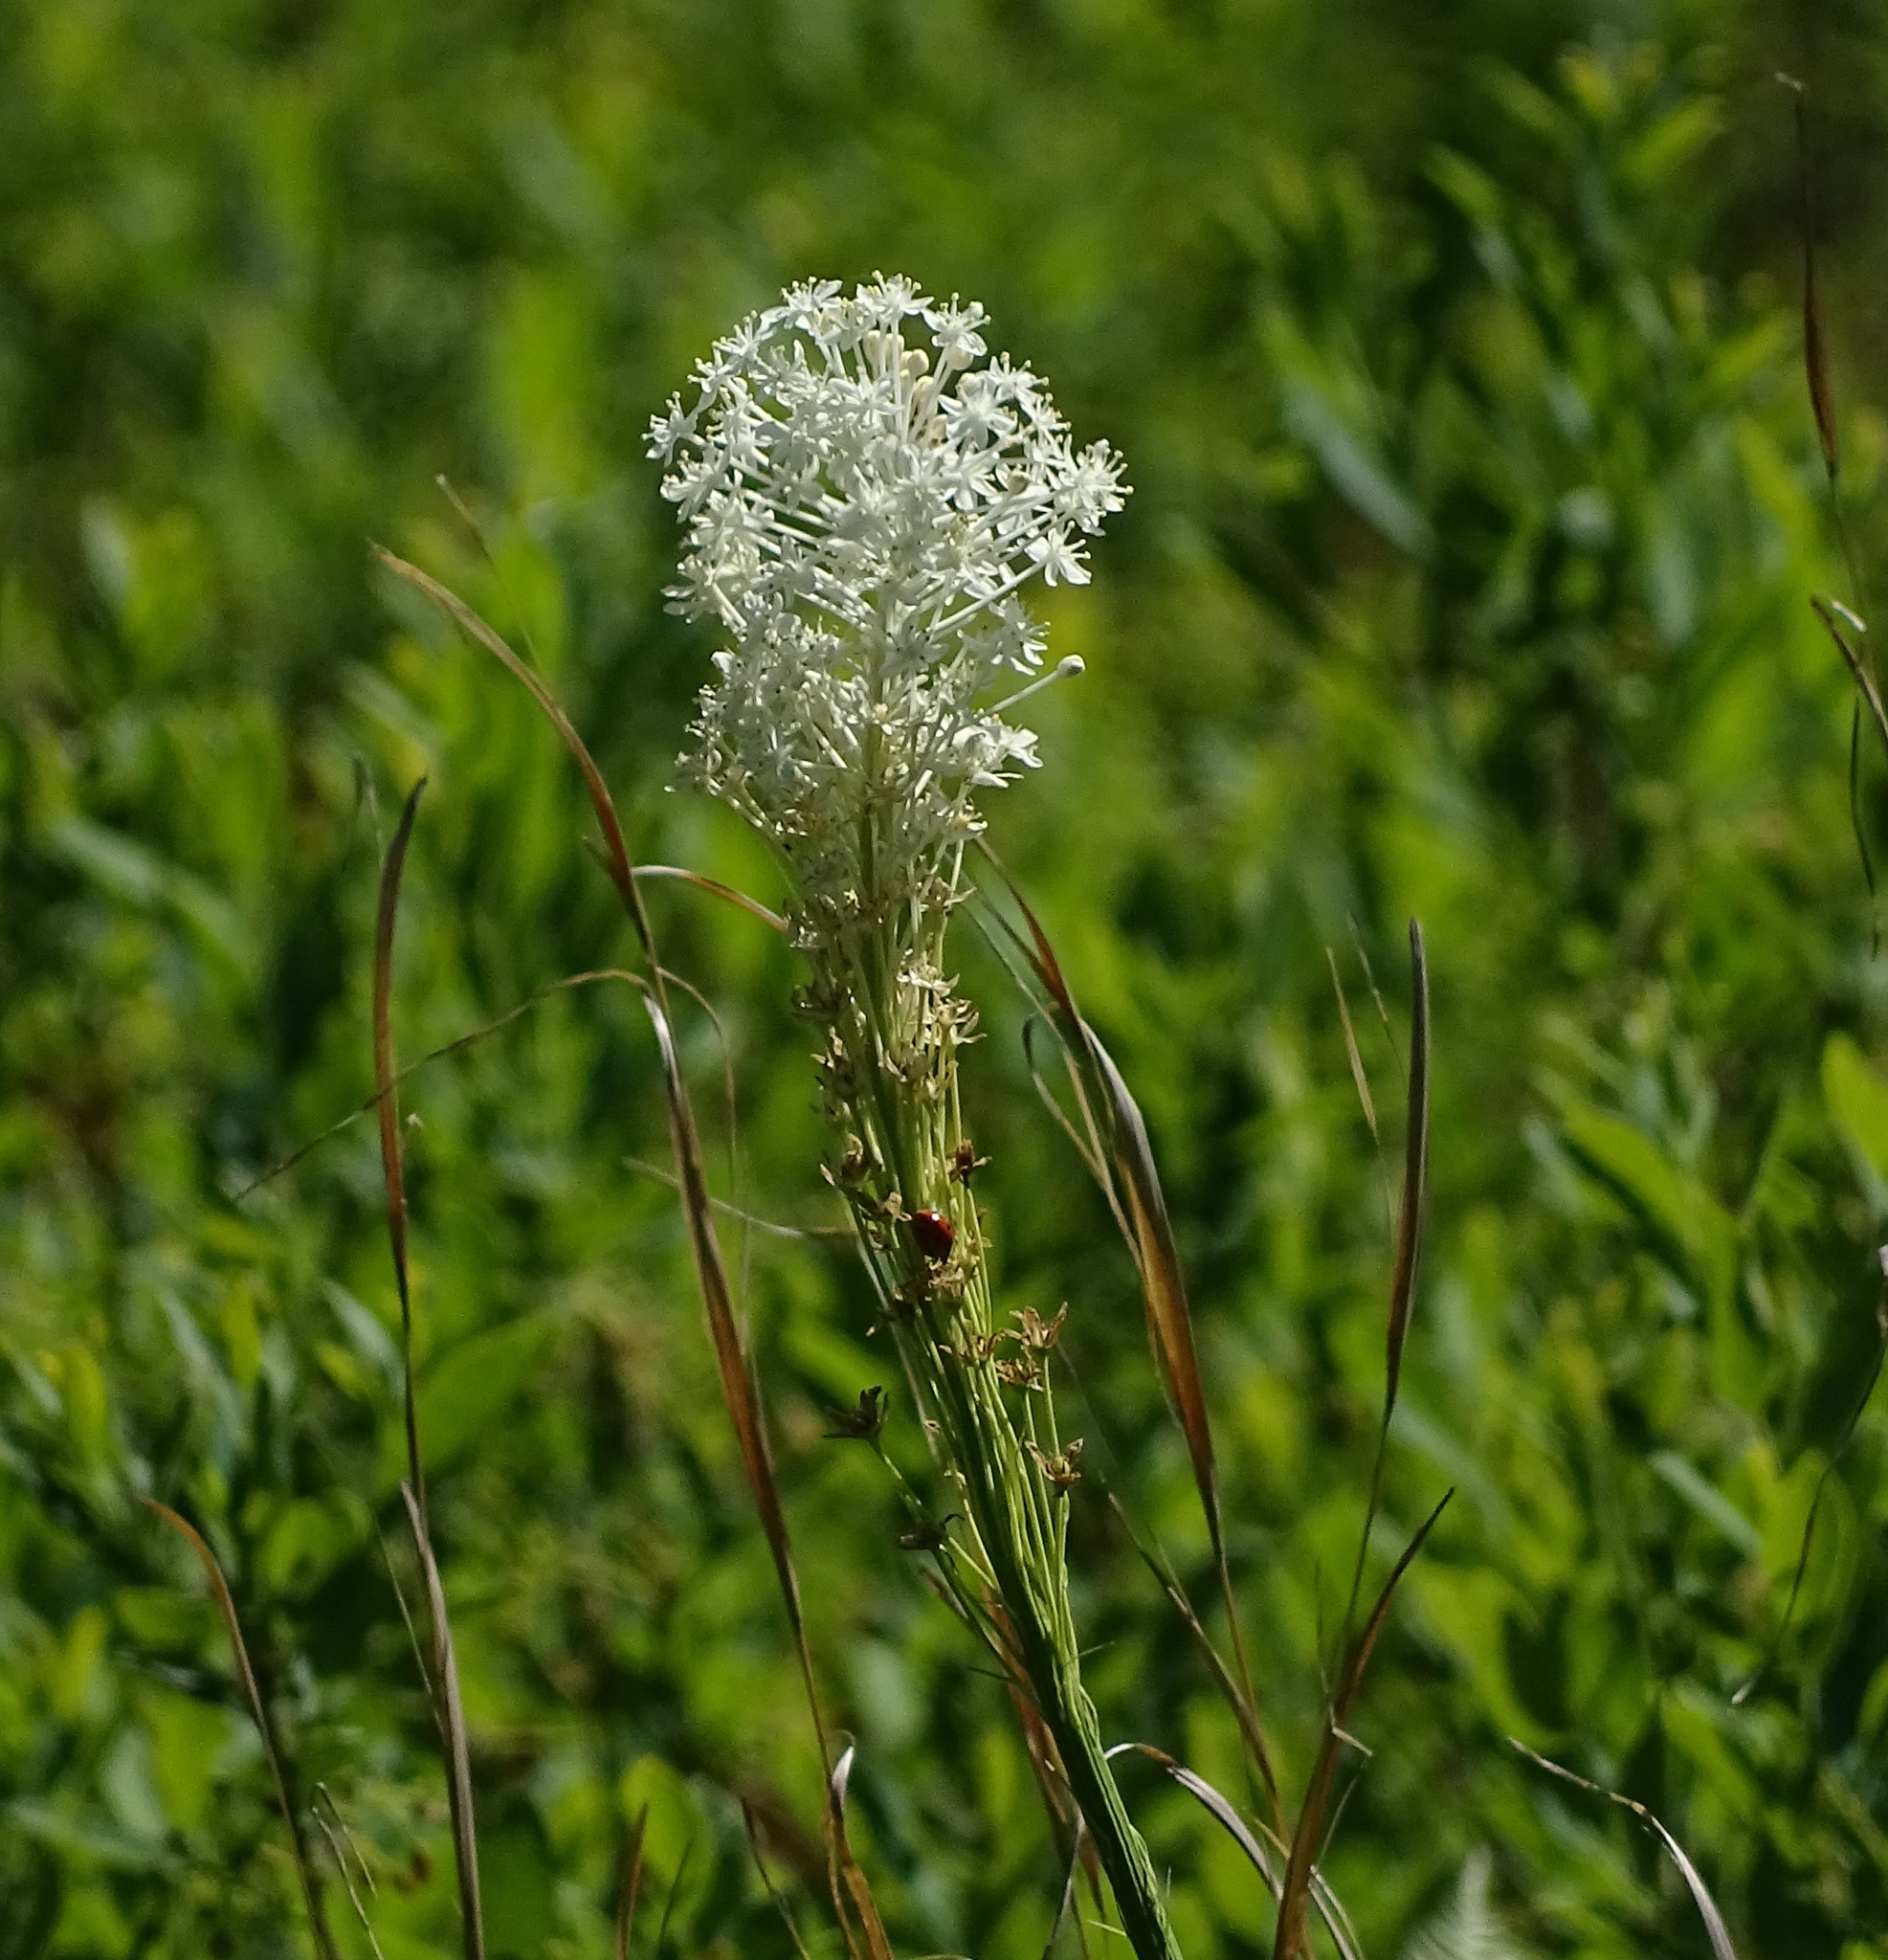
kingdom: Plantae
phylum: Tracheophyta
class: Liliopsida
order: Liliales
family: Melanthiaceae
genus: Xerophyllum
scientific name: Xerophyllum asphodeloides
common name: Mountain-asphodel
